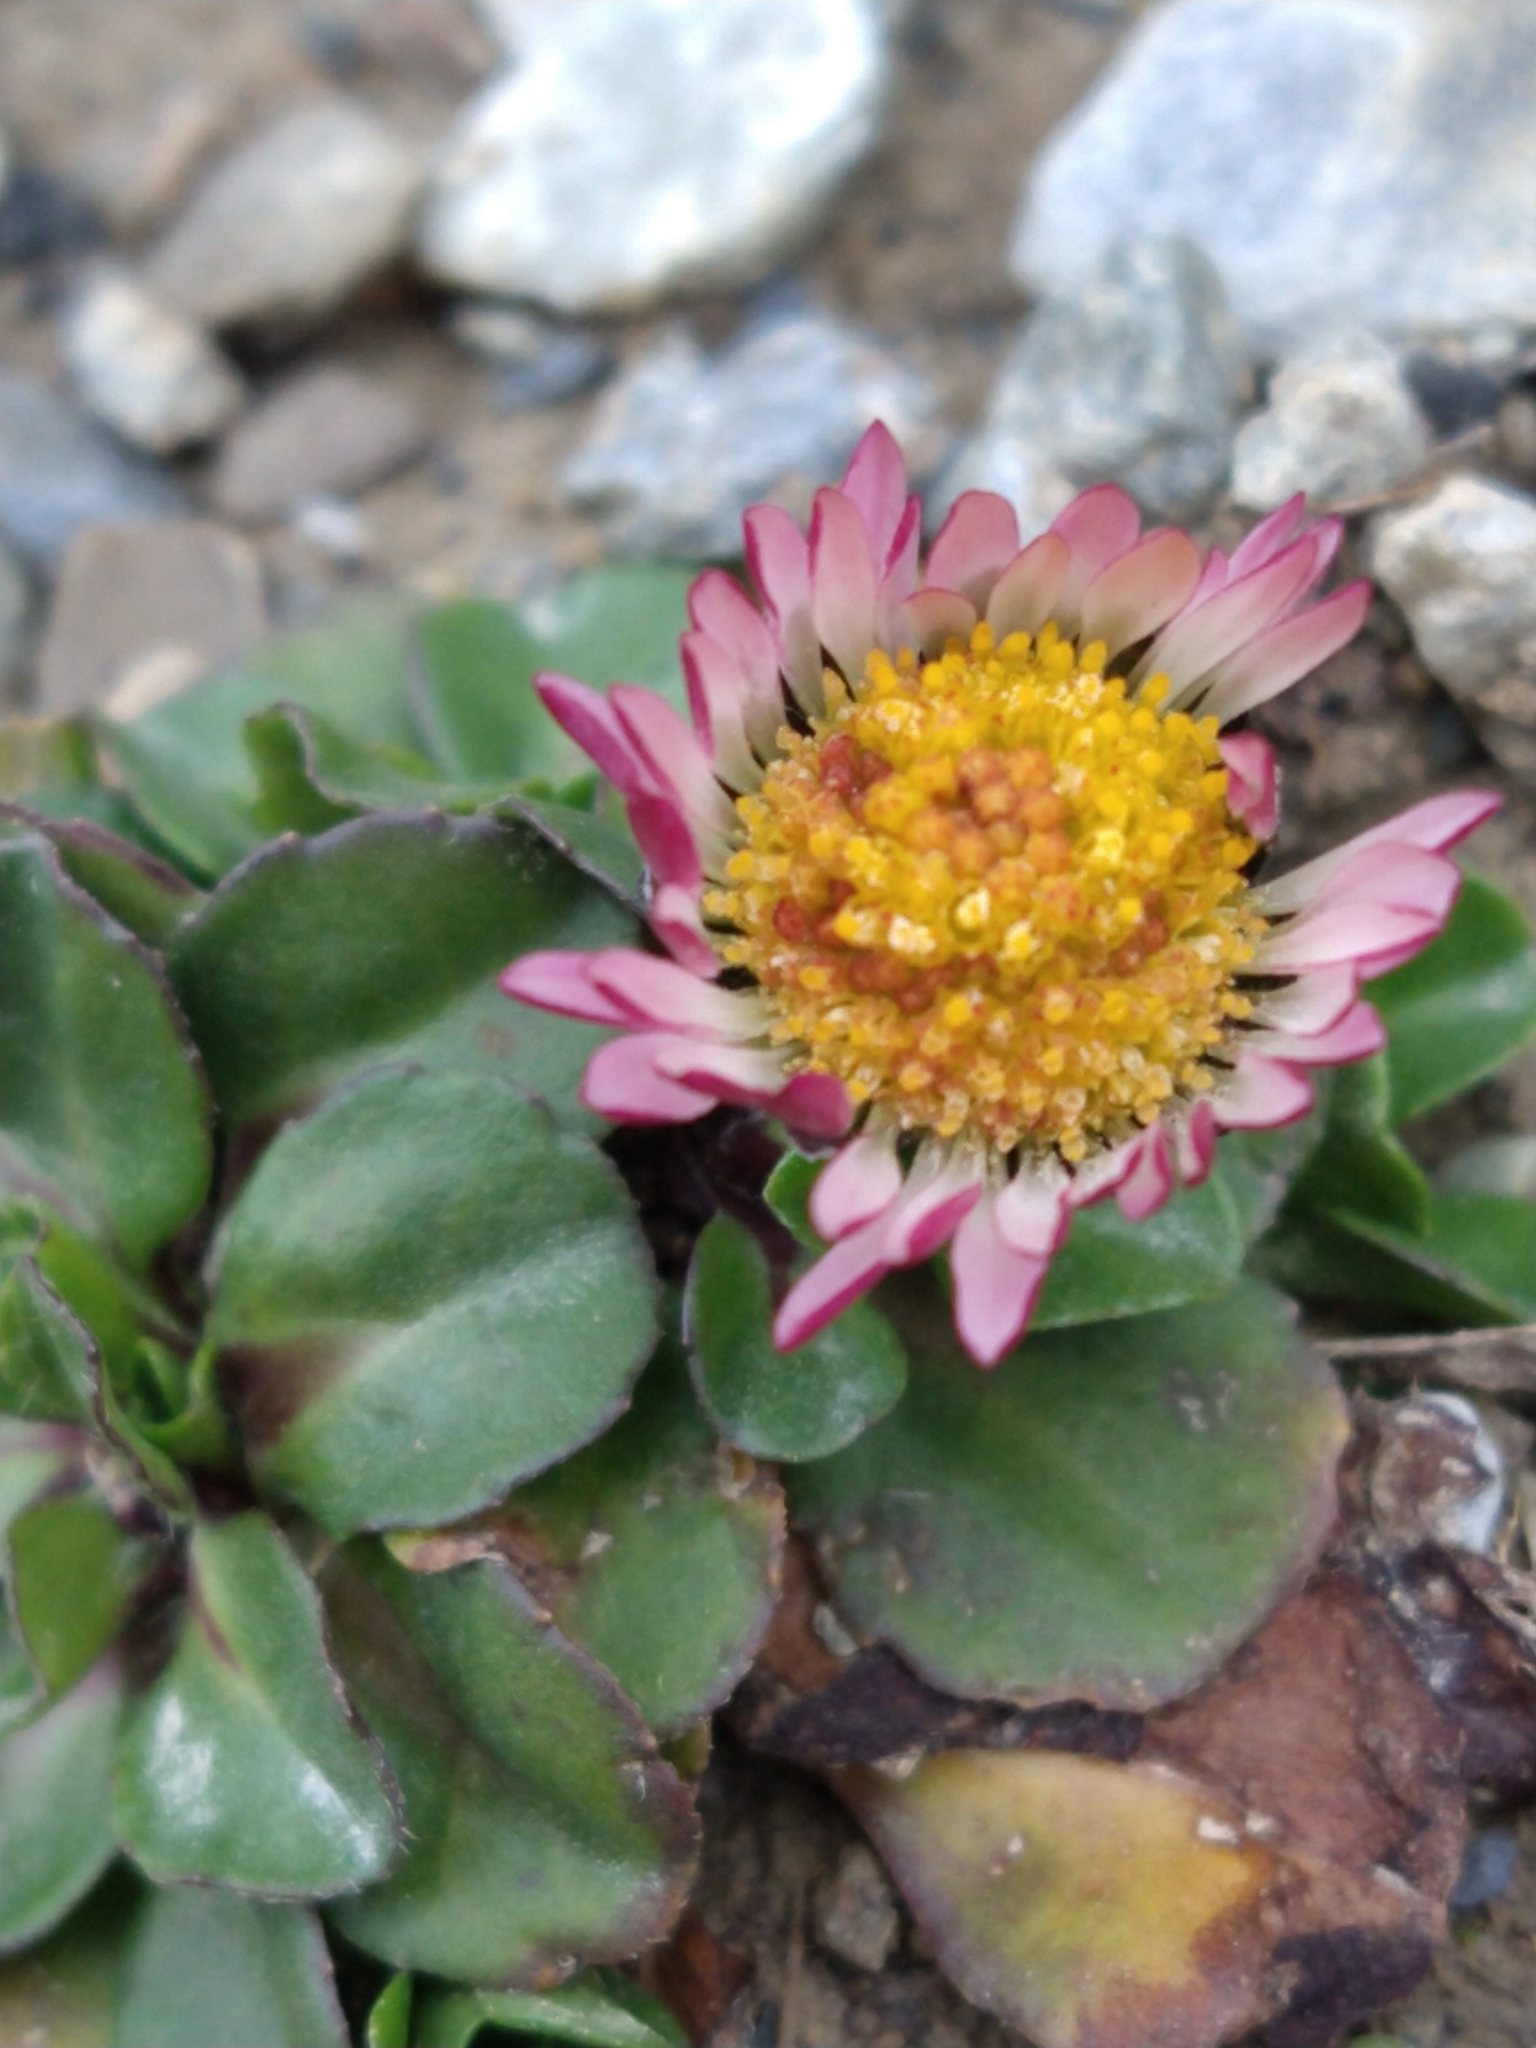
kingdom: Plantae
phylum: Tracheophyta
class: Magnoliopsida
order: Asterales
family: Asteraceae
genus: Bellis
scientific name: Bellis perennis
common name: Lawndaisy
